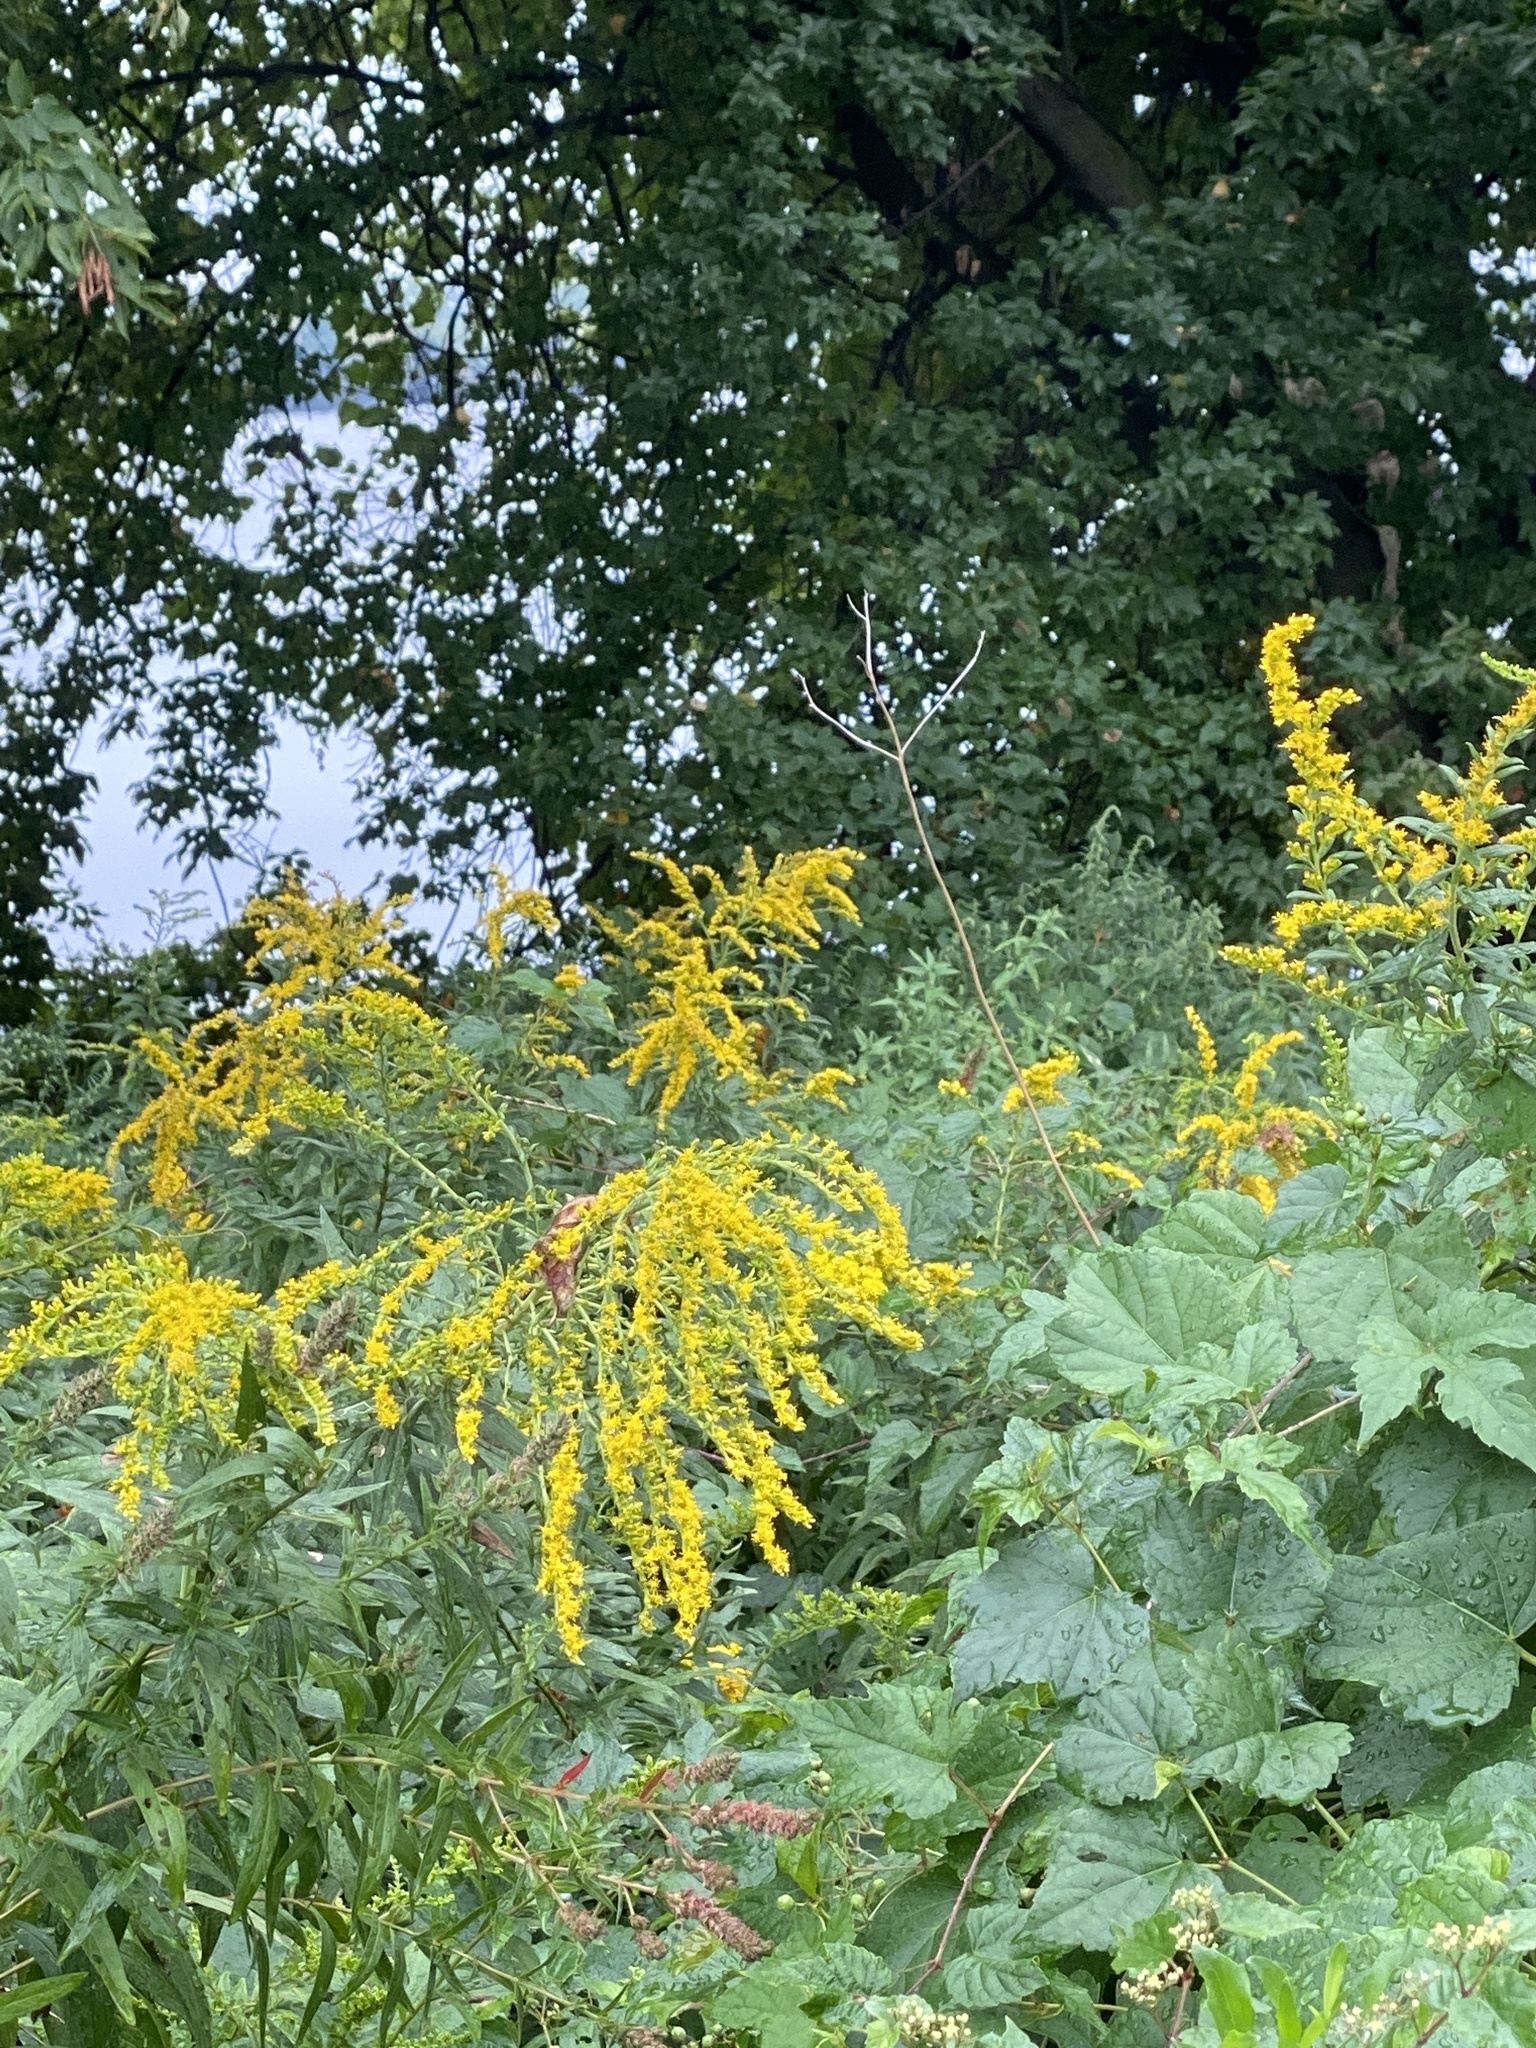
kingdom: Plantae
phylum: Tracheophyta
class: Magnoliopsida
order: Asterales
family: Asteraceae
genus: Solidago
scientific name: Solidago altissima
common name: Late goldenrod
